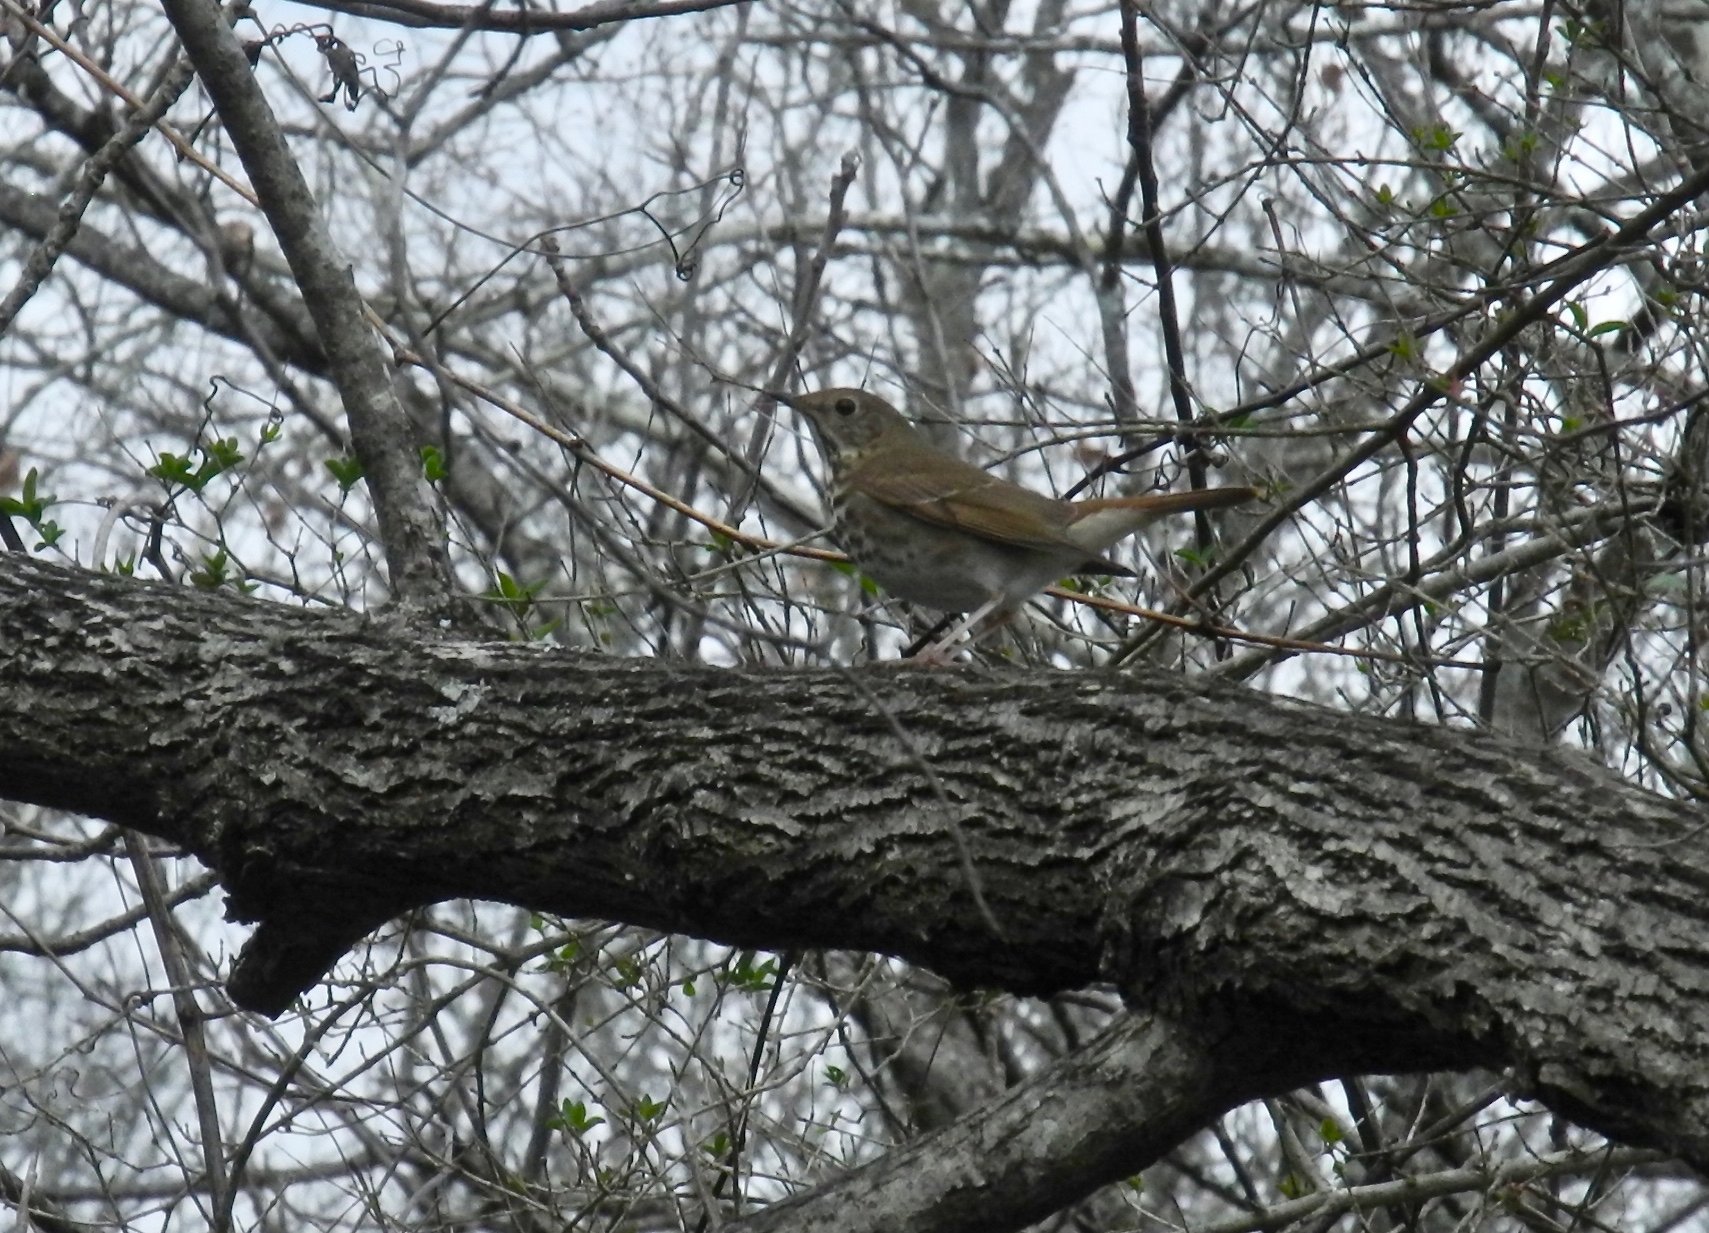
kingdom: Animalia
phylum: Chordata
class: Aves
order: Passeriformes
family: Turdidae
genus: Catharus
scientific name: Catharus guttatus
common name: Hermit thrush
